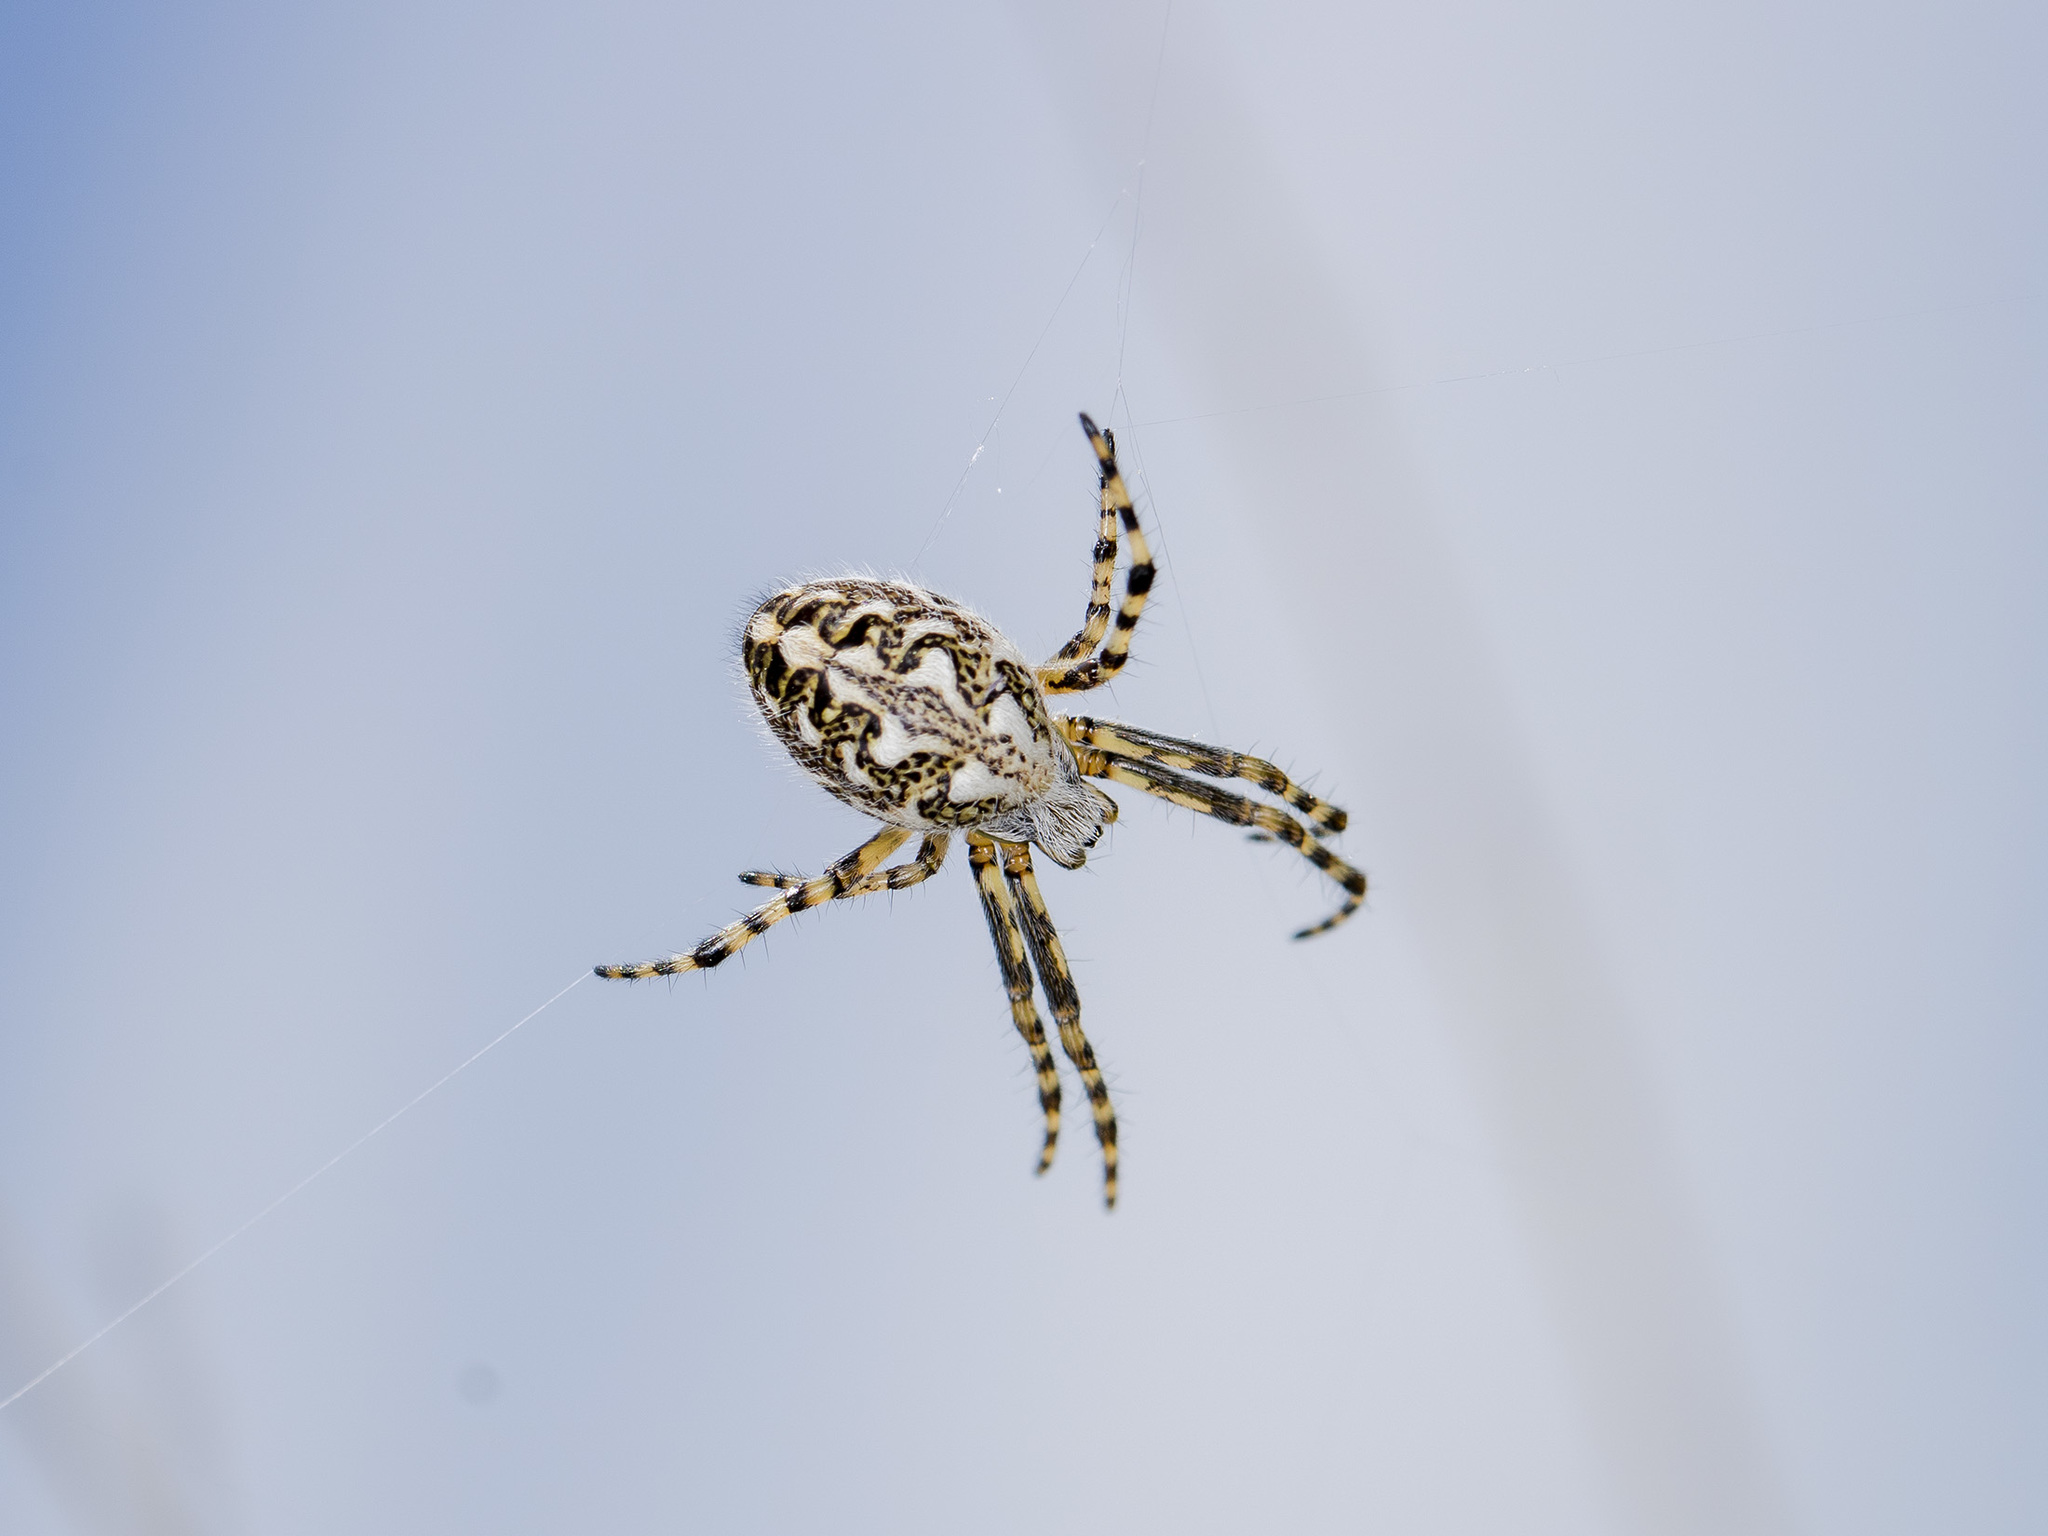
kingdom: Animalia
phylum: Arthropoda
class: Arachnida
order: Araneae
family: Araneidae
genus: Aculepeira
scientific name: Aculepeira armida
